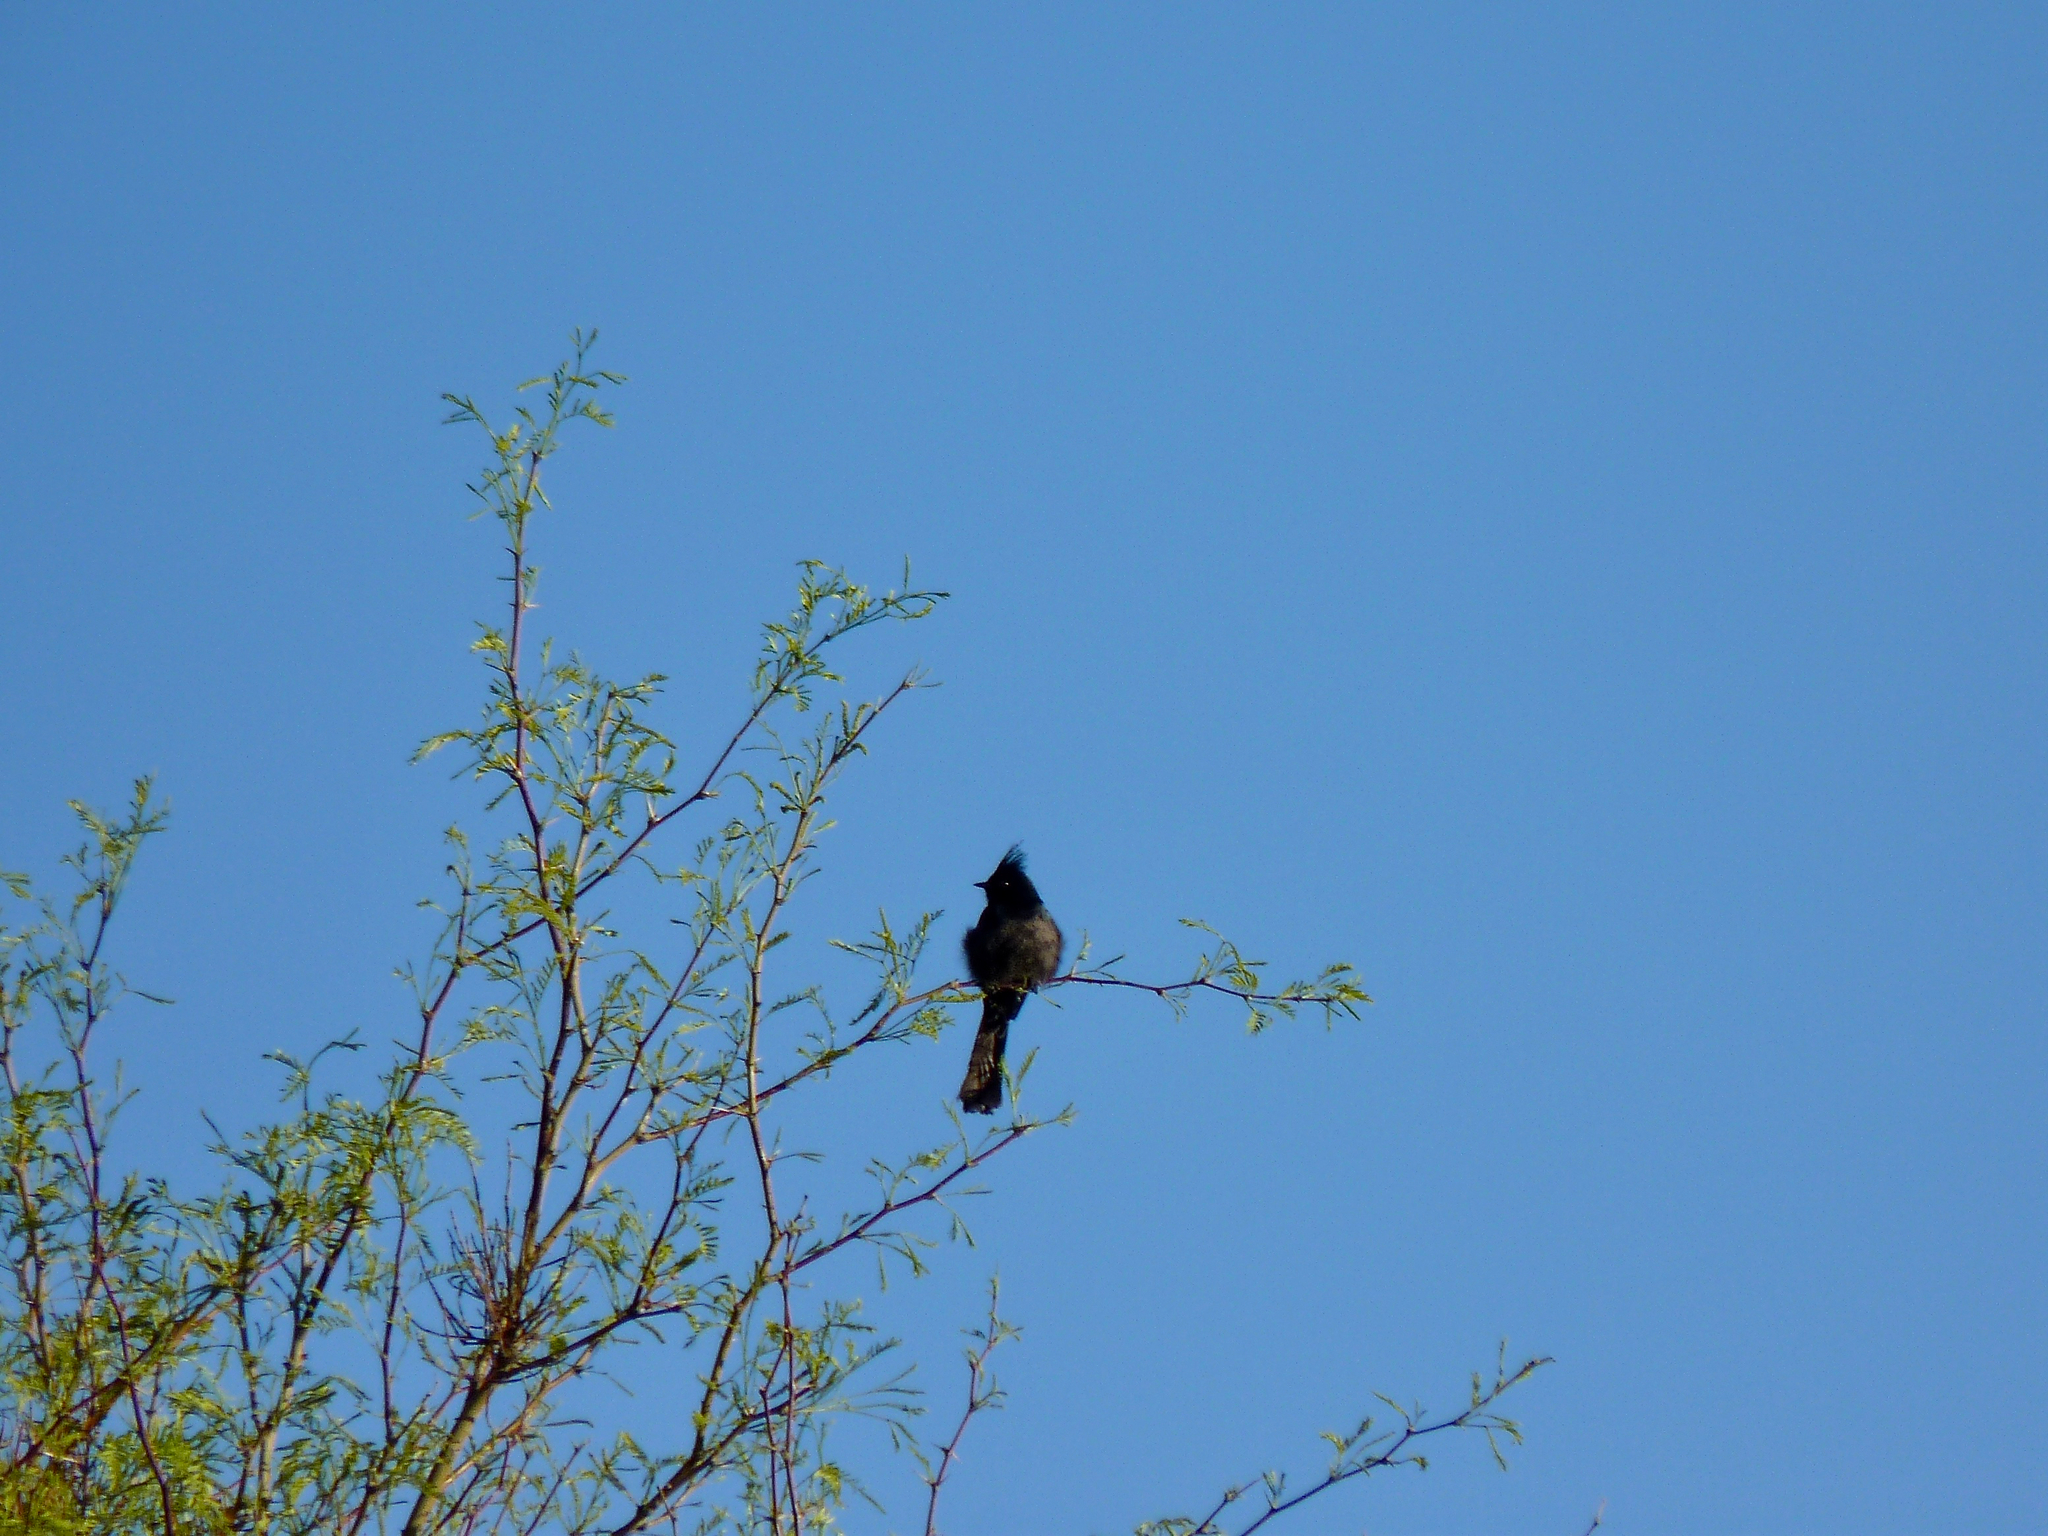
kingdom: Animalia
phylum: Chordata
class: Aves
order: Passeriformes
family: Ptilogonatidae
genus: Phainopepla
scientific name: Phainopepla nitens
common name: Phainopepla
